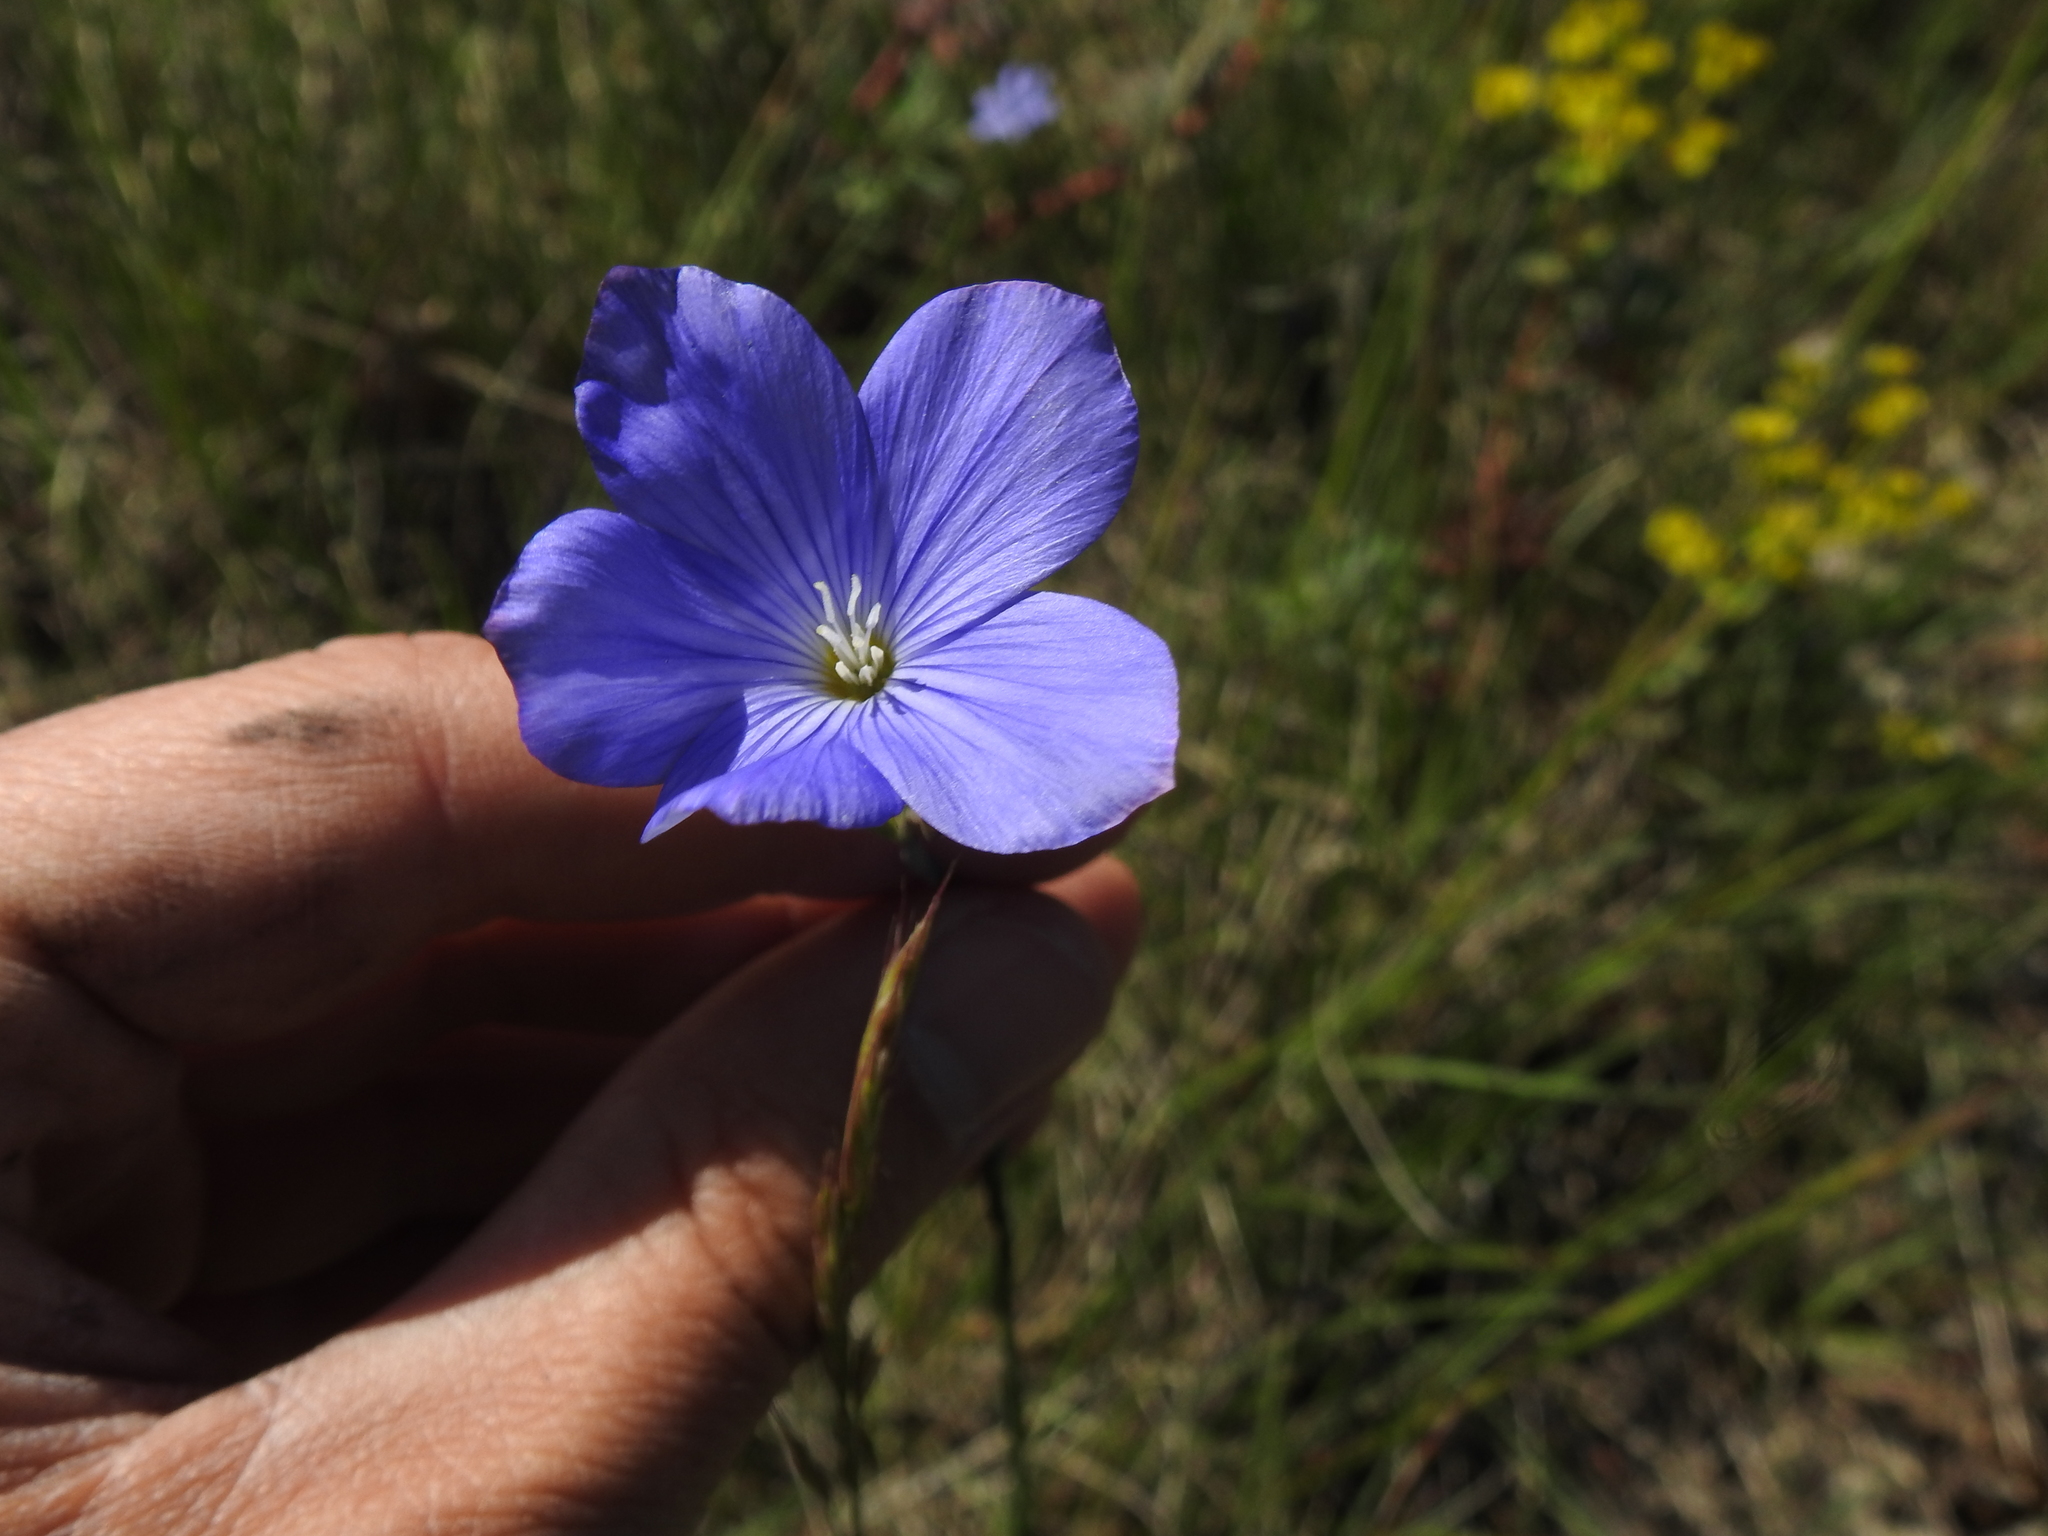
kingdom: Plantae
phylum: Tracheophyta
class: Magnoliopsida
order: Malpighiales
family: Linaceae
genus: Linum
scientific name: Linum narbonense
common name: Flax
